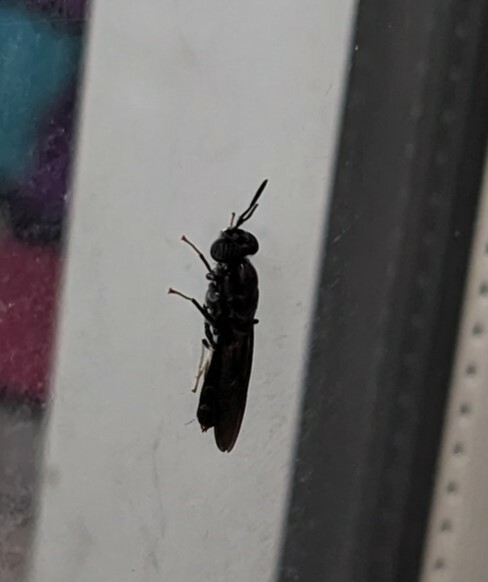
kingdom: Animalia
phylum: Arthropoda
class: Insecta
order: Diptera
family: Stratiomyidae
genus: Hermetia
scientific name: Hermetia illucens
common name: Black soldier fly
